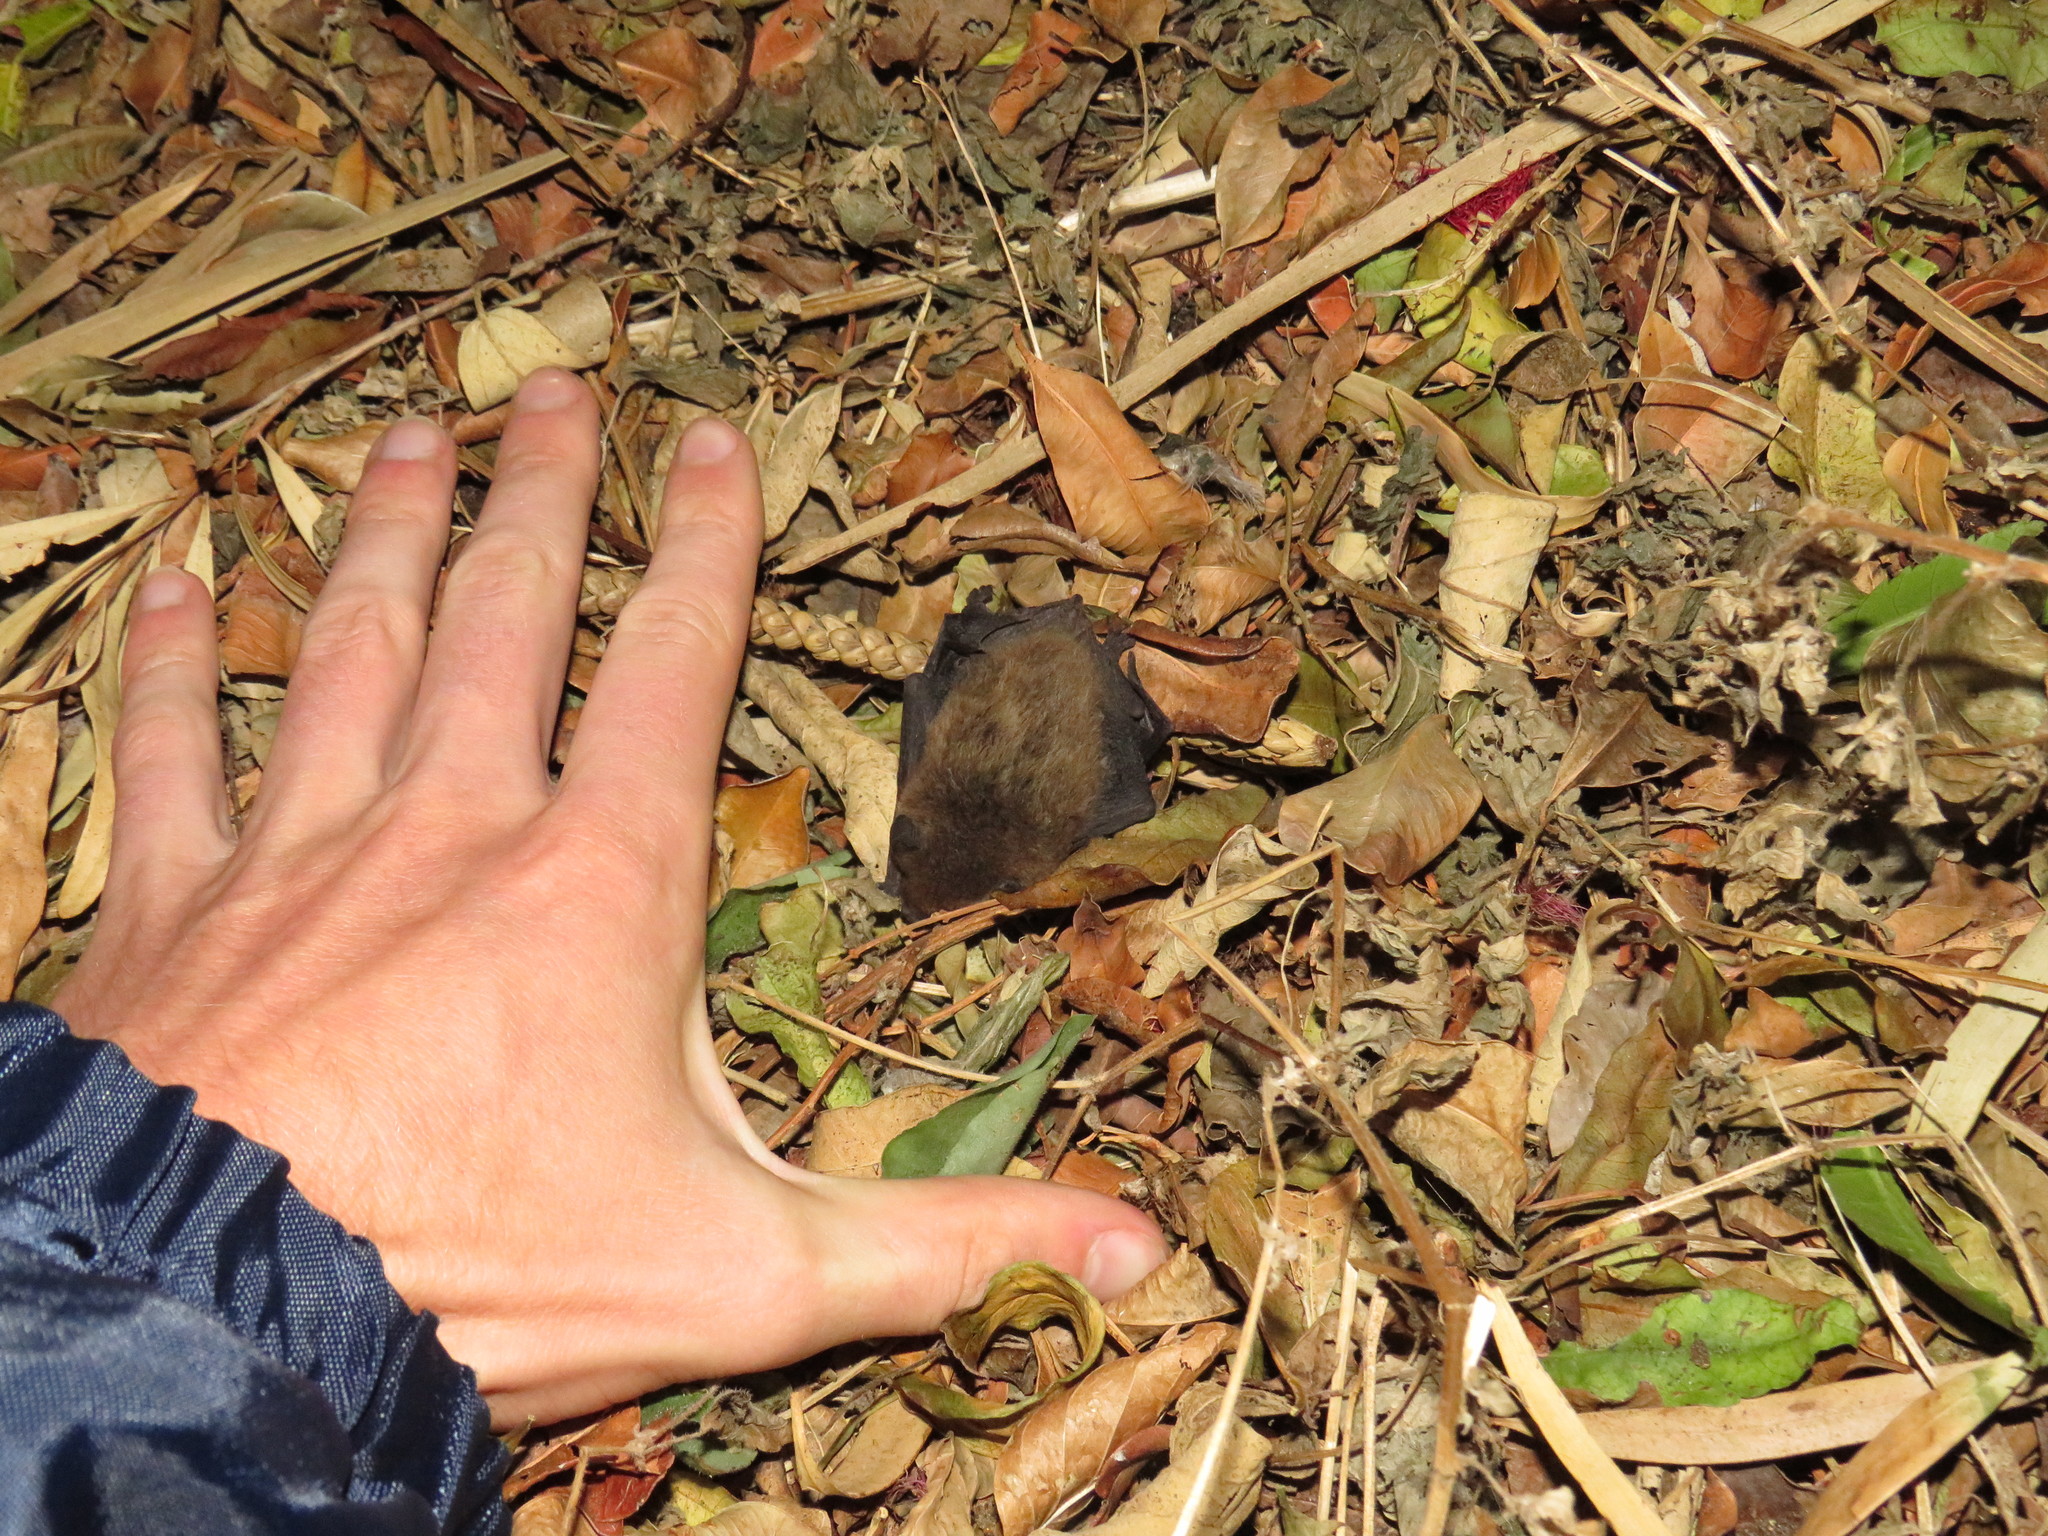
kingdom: Animalia
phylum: Chordata
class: Mammalia
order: Chiroptera
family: Vespertilionidae
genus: Laephotis
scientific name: Laephotis capensis
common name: Cape serotine
